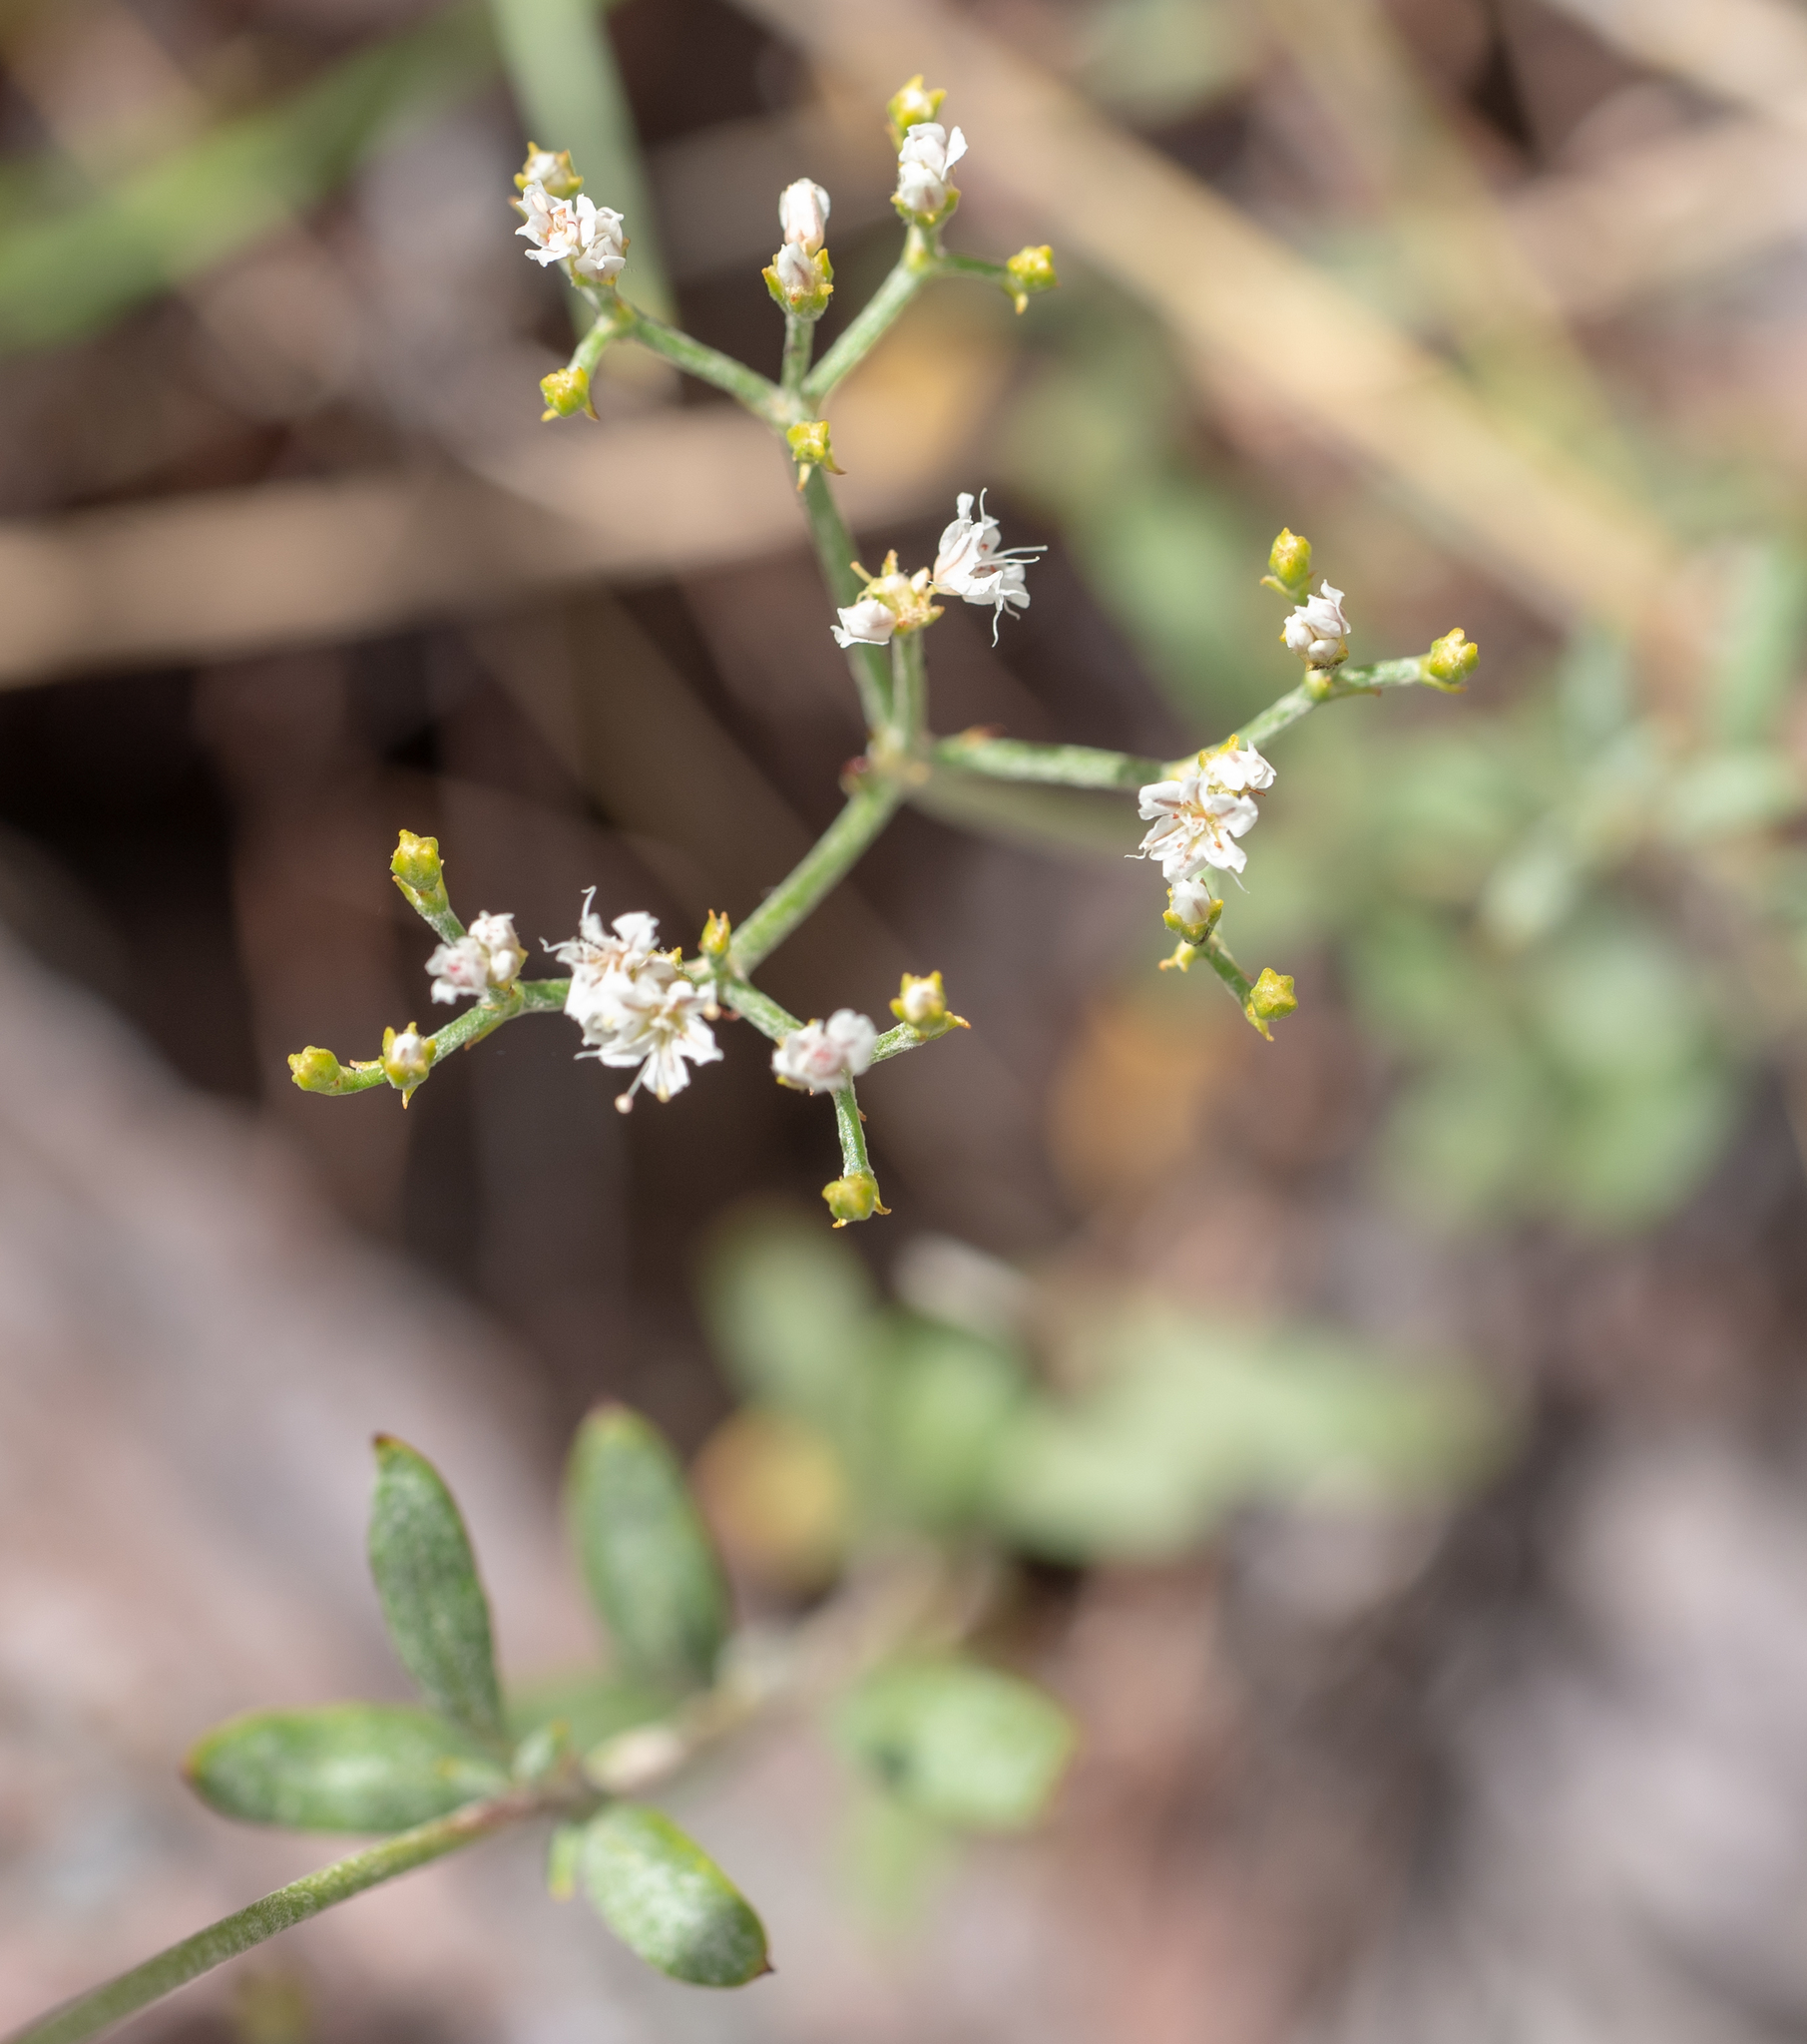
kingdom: Plantae
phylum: Tracheophyta
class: Magnoliopsida
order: Caryophyllales
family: Polygonaceae
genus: Eriogonum
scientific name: Eriogonum microtheca
